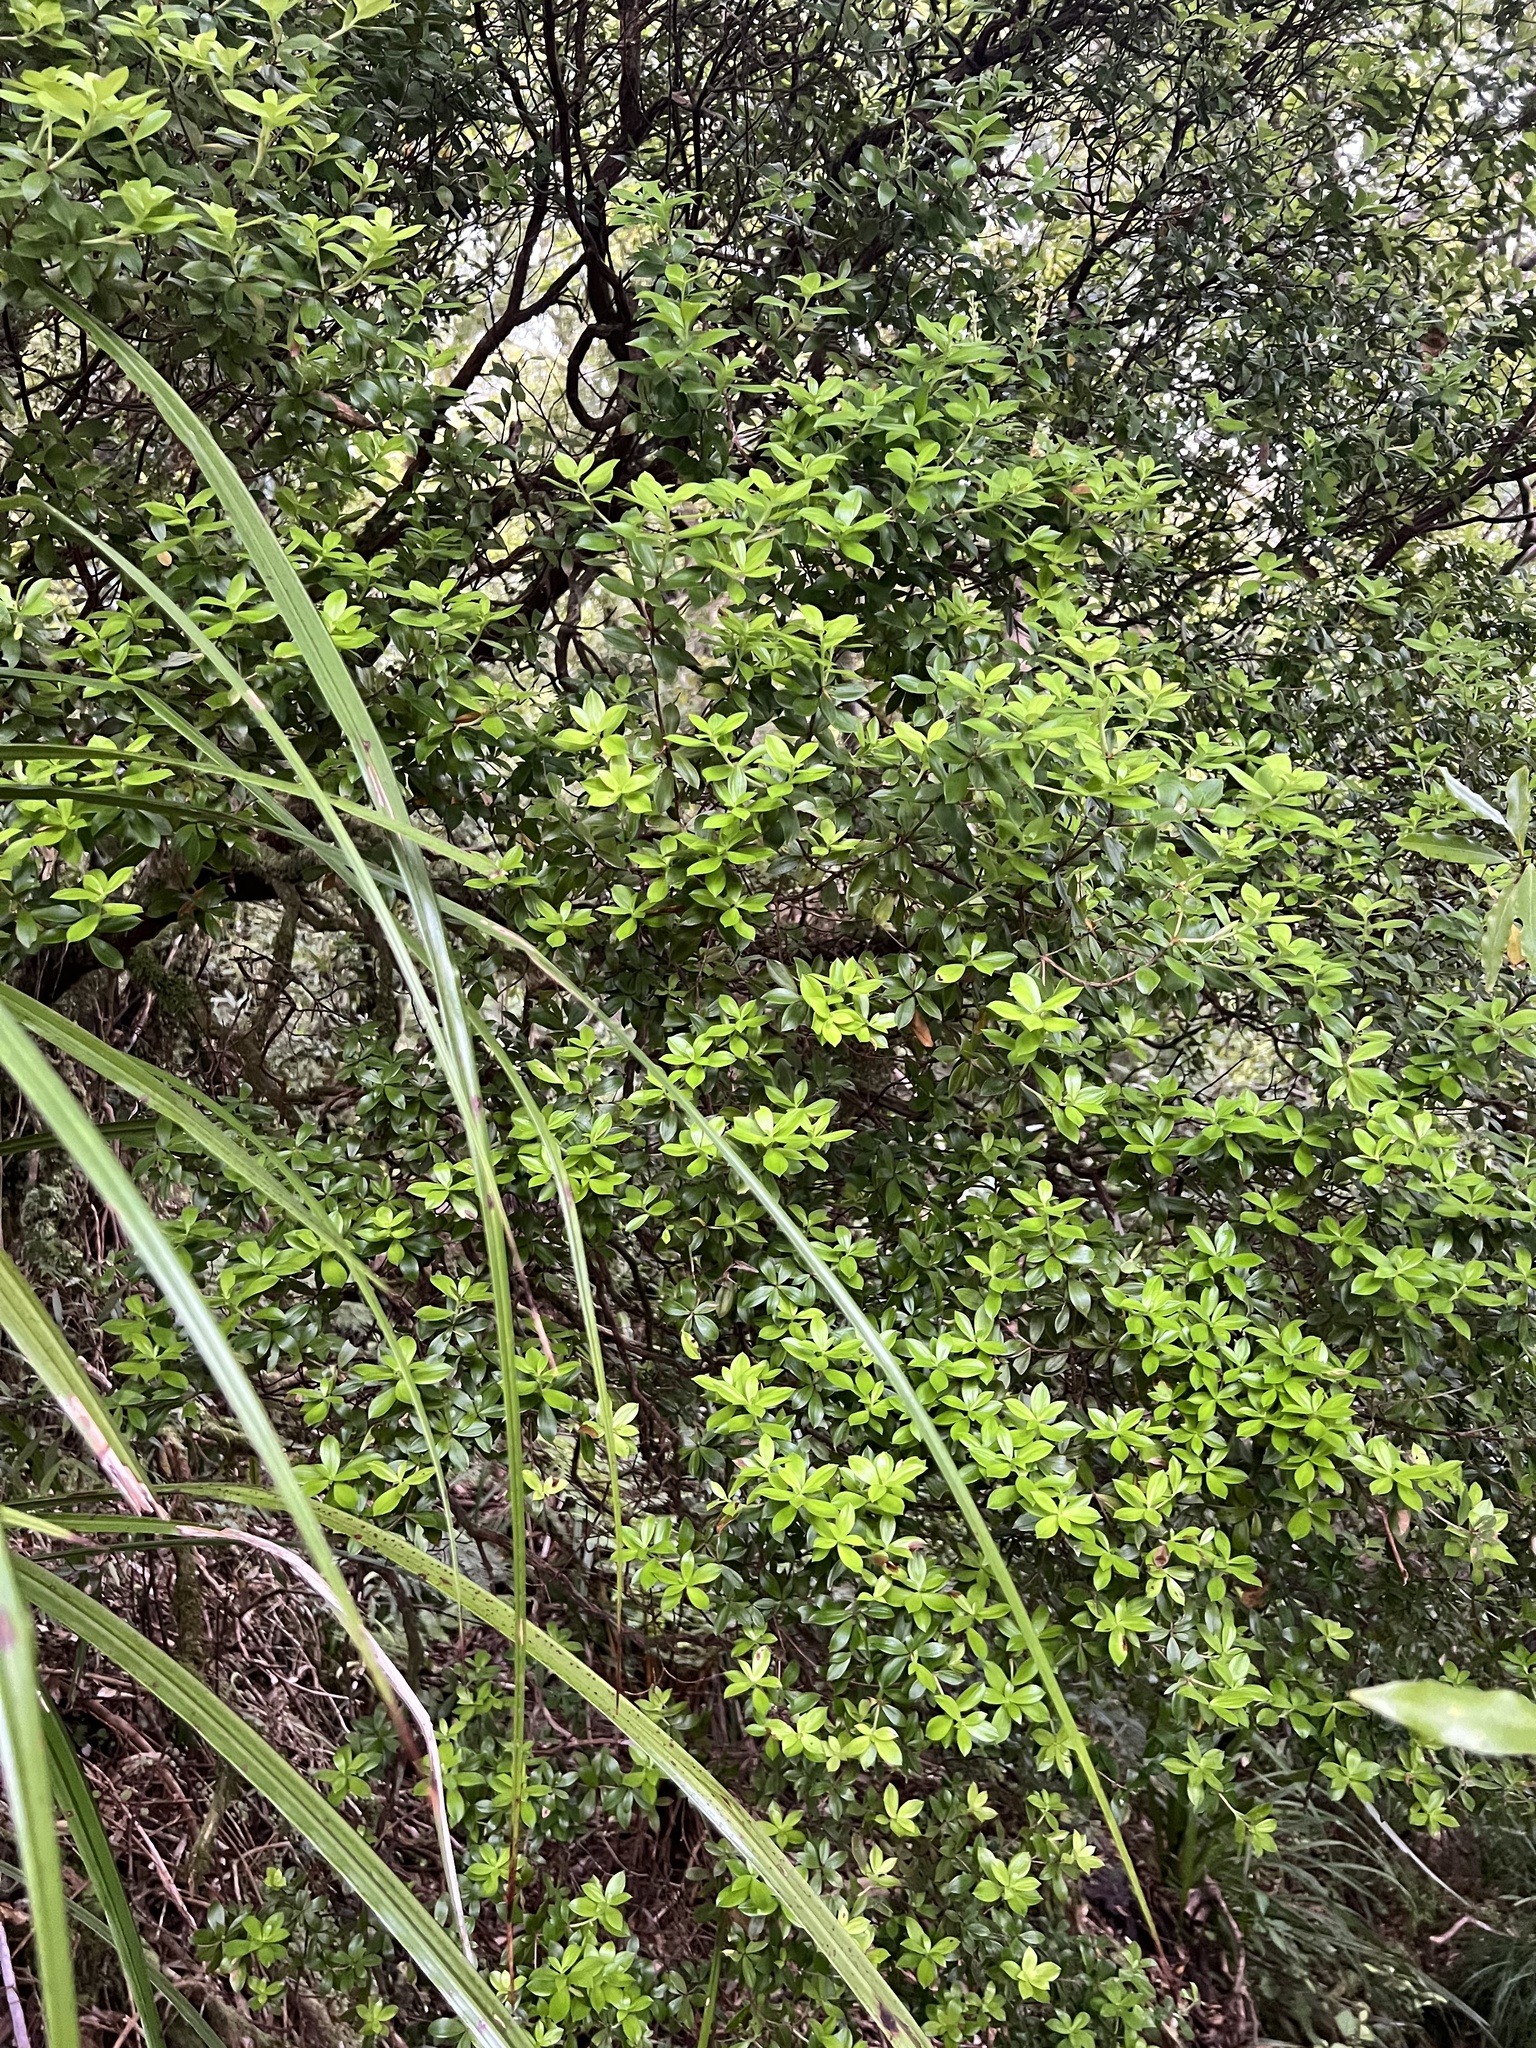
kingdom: Plantae
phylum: Tracheophyta
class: Magnoliopsida
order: Ericales
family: Ericaceae
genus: Archeria
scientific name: Archeria racemosa
